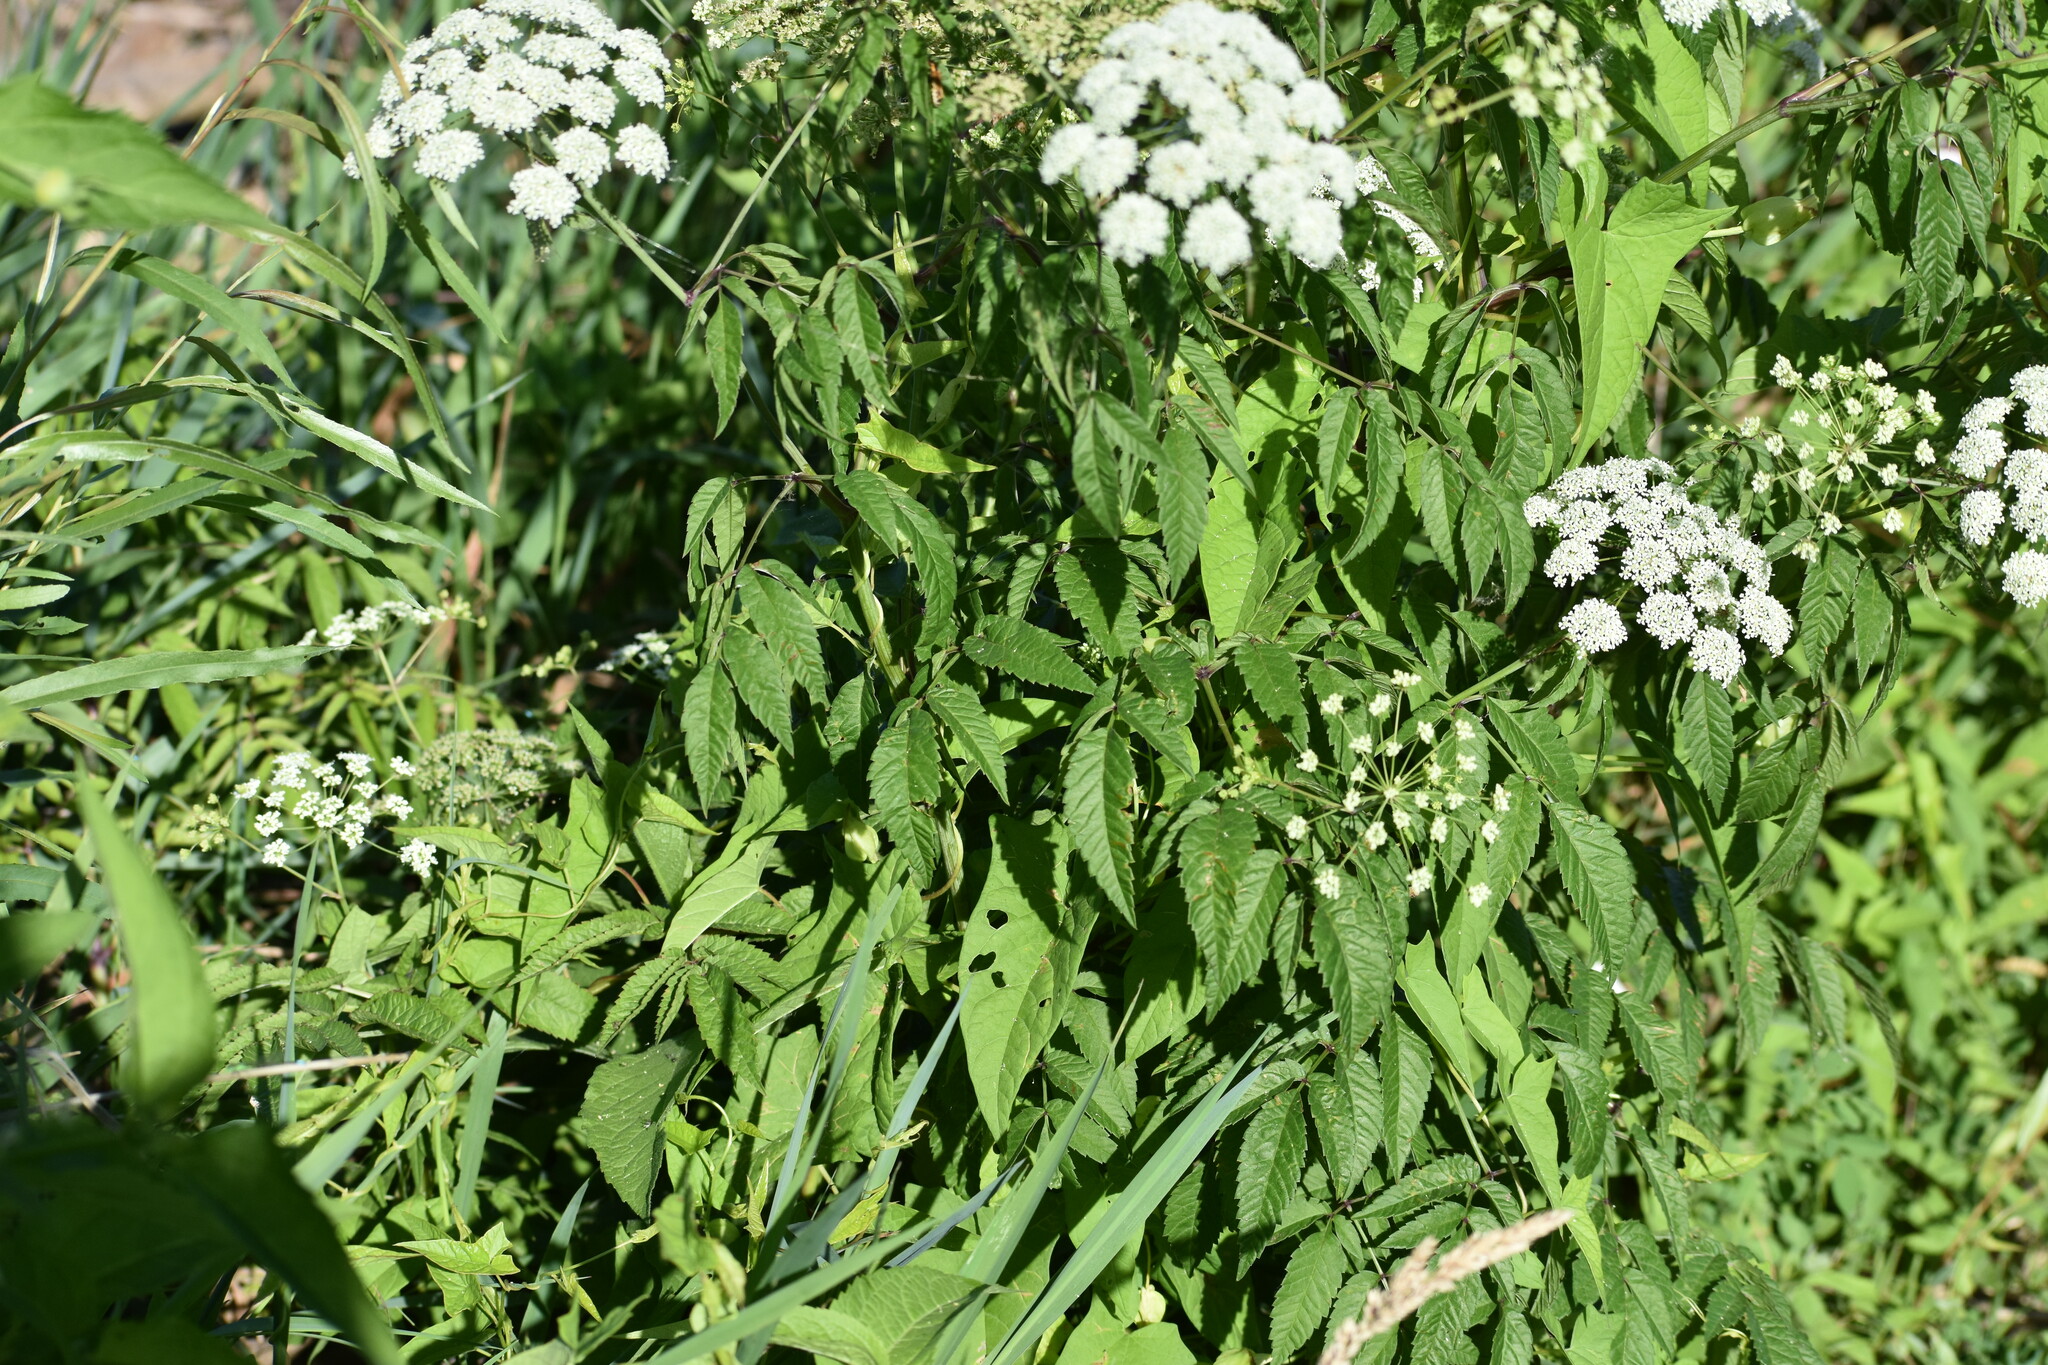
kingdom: Plantae
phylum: Tracheophyta
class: Magnoliopsida
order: Apiales
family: Apiaceae
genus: Cicuta
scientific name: Cicuta maculata
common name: Spotted cowbane
